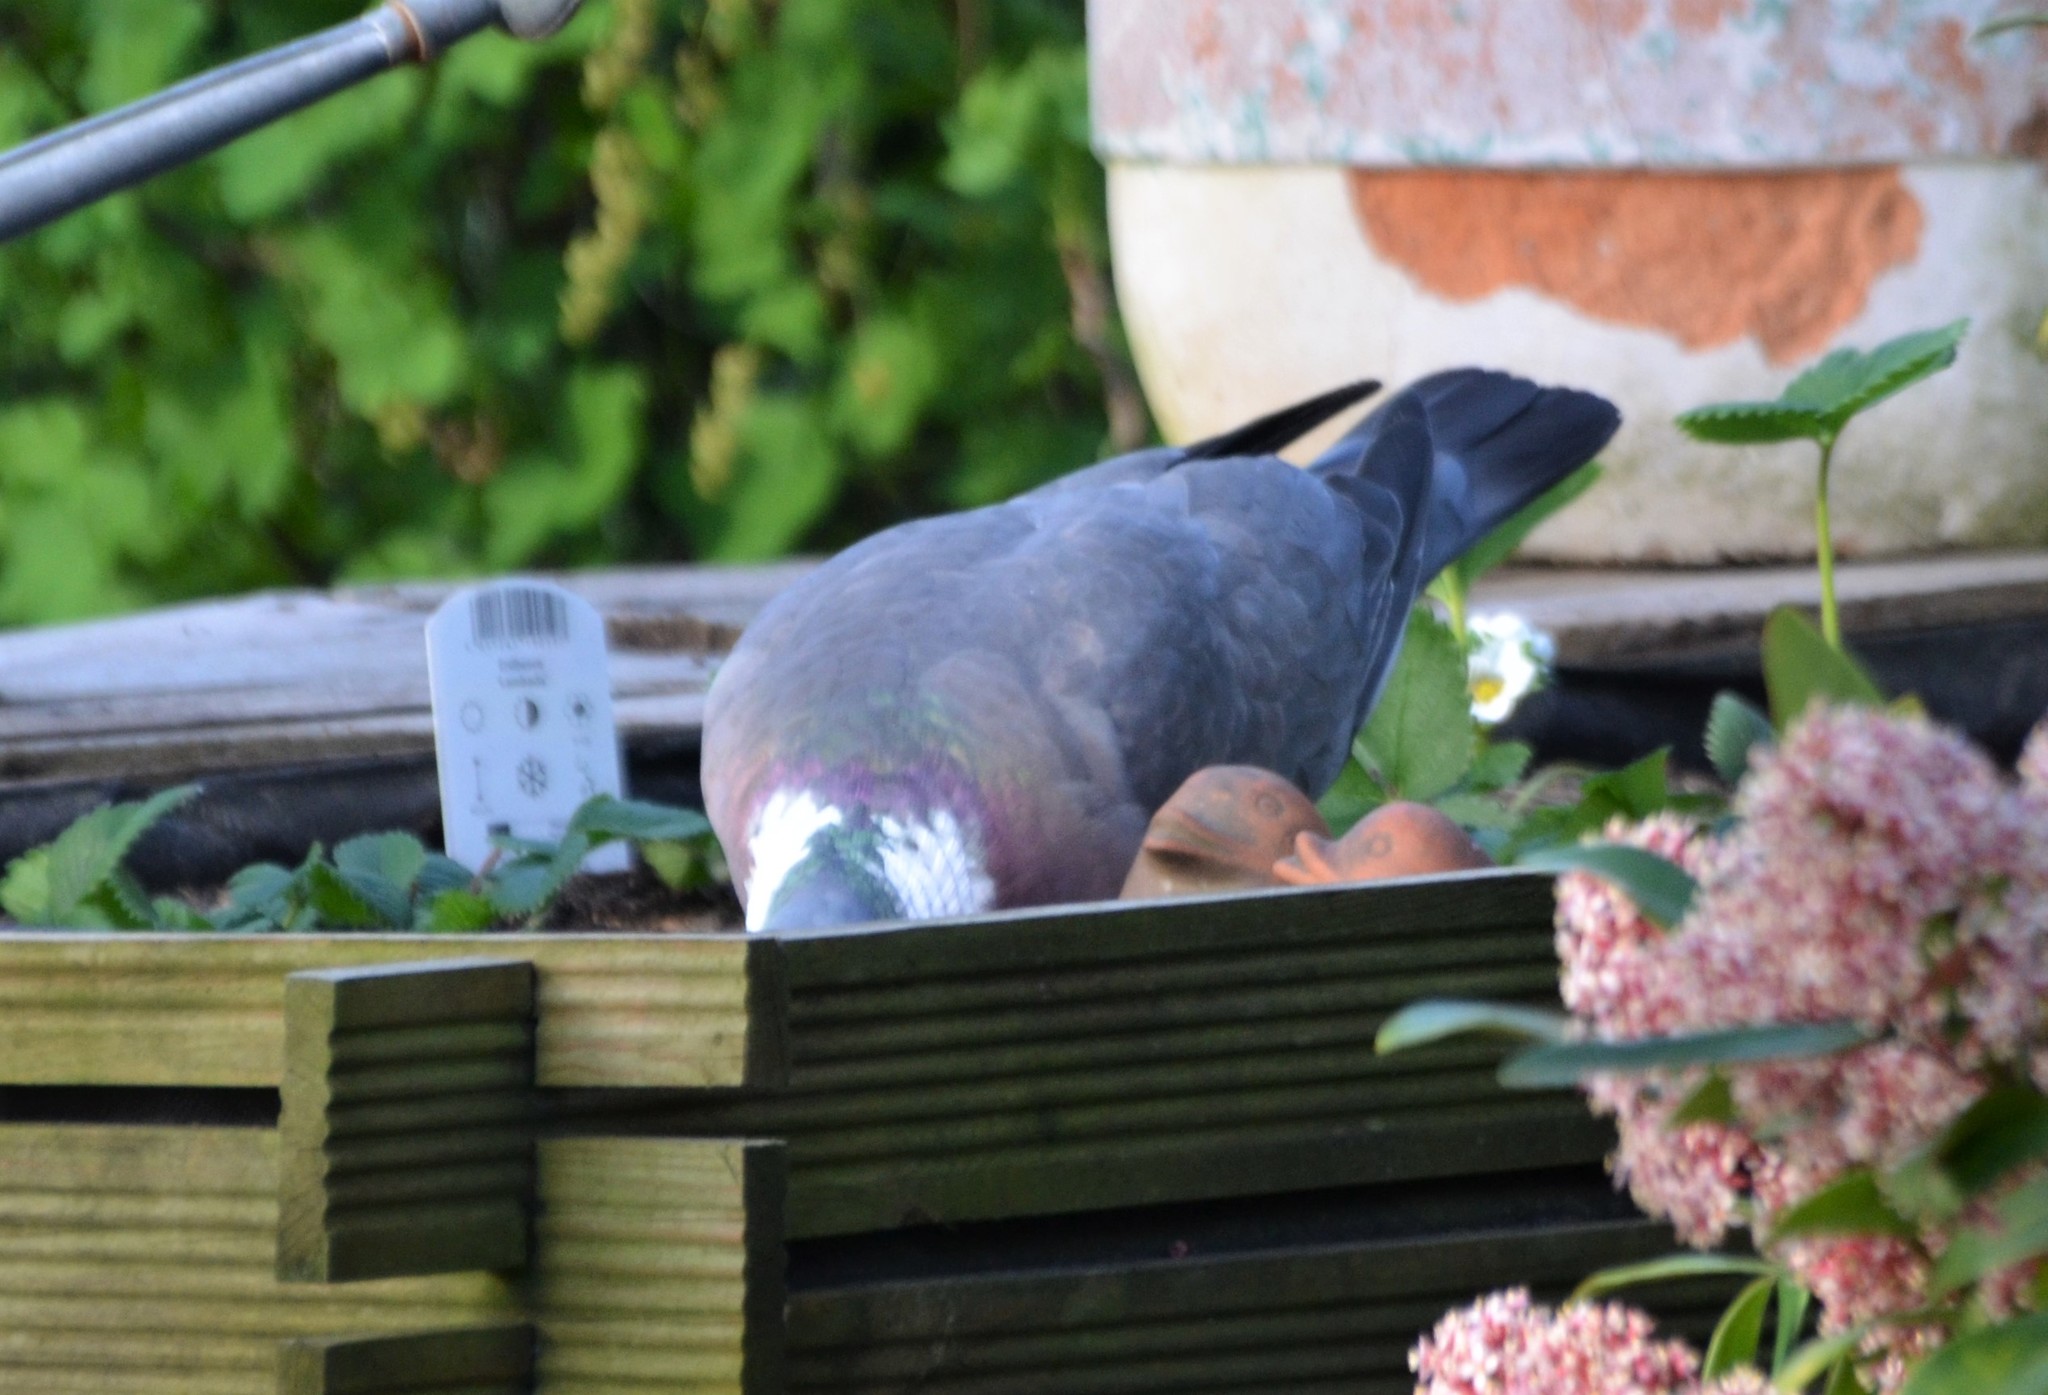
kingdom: Animalia
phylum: Chordata
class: Aves
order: Columbiformes
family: Columbidae
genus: Columba
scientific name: Columba palumbus
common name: Common wood pigeon
